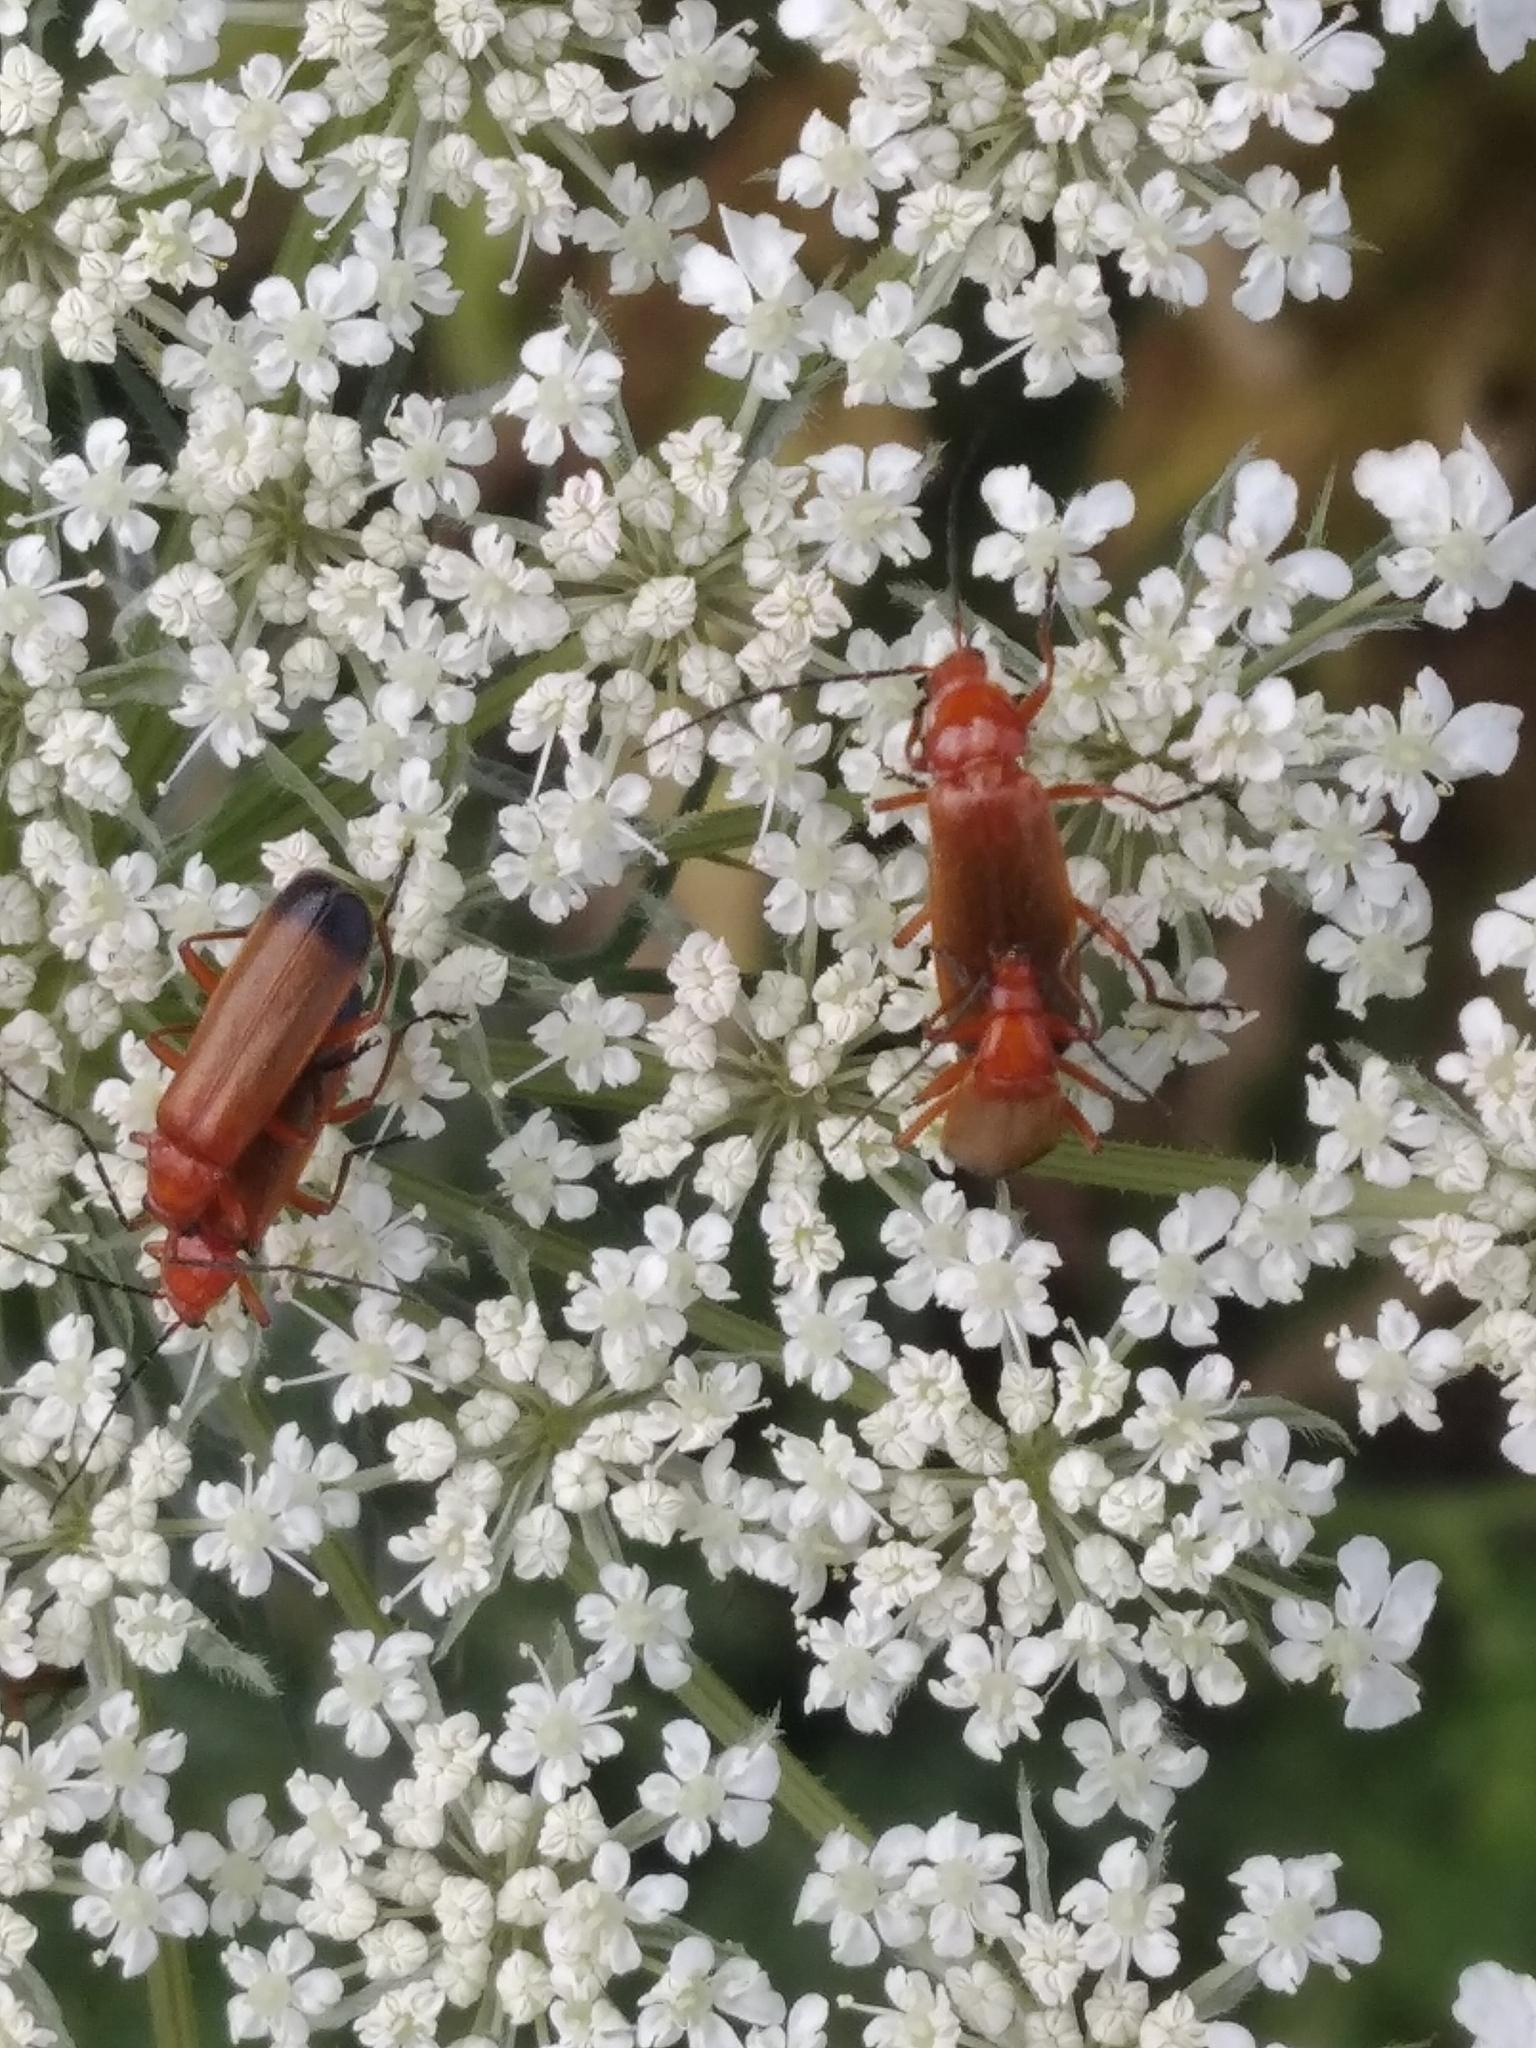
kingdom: Animalia
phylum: Arthropoda
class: Insecta
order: Coleoptera
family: Cantharidae
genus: Rhagonycha
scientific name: Rhagonycha fulva
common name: Common red soldier beetle
